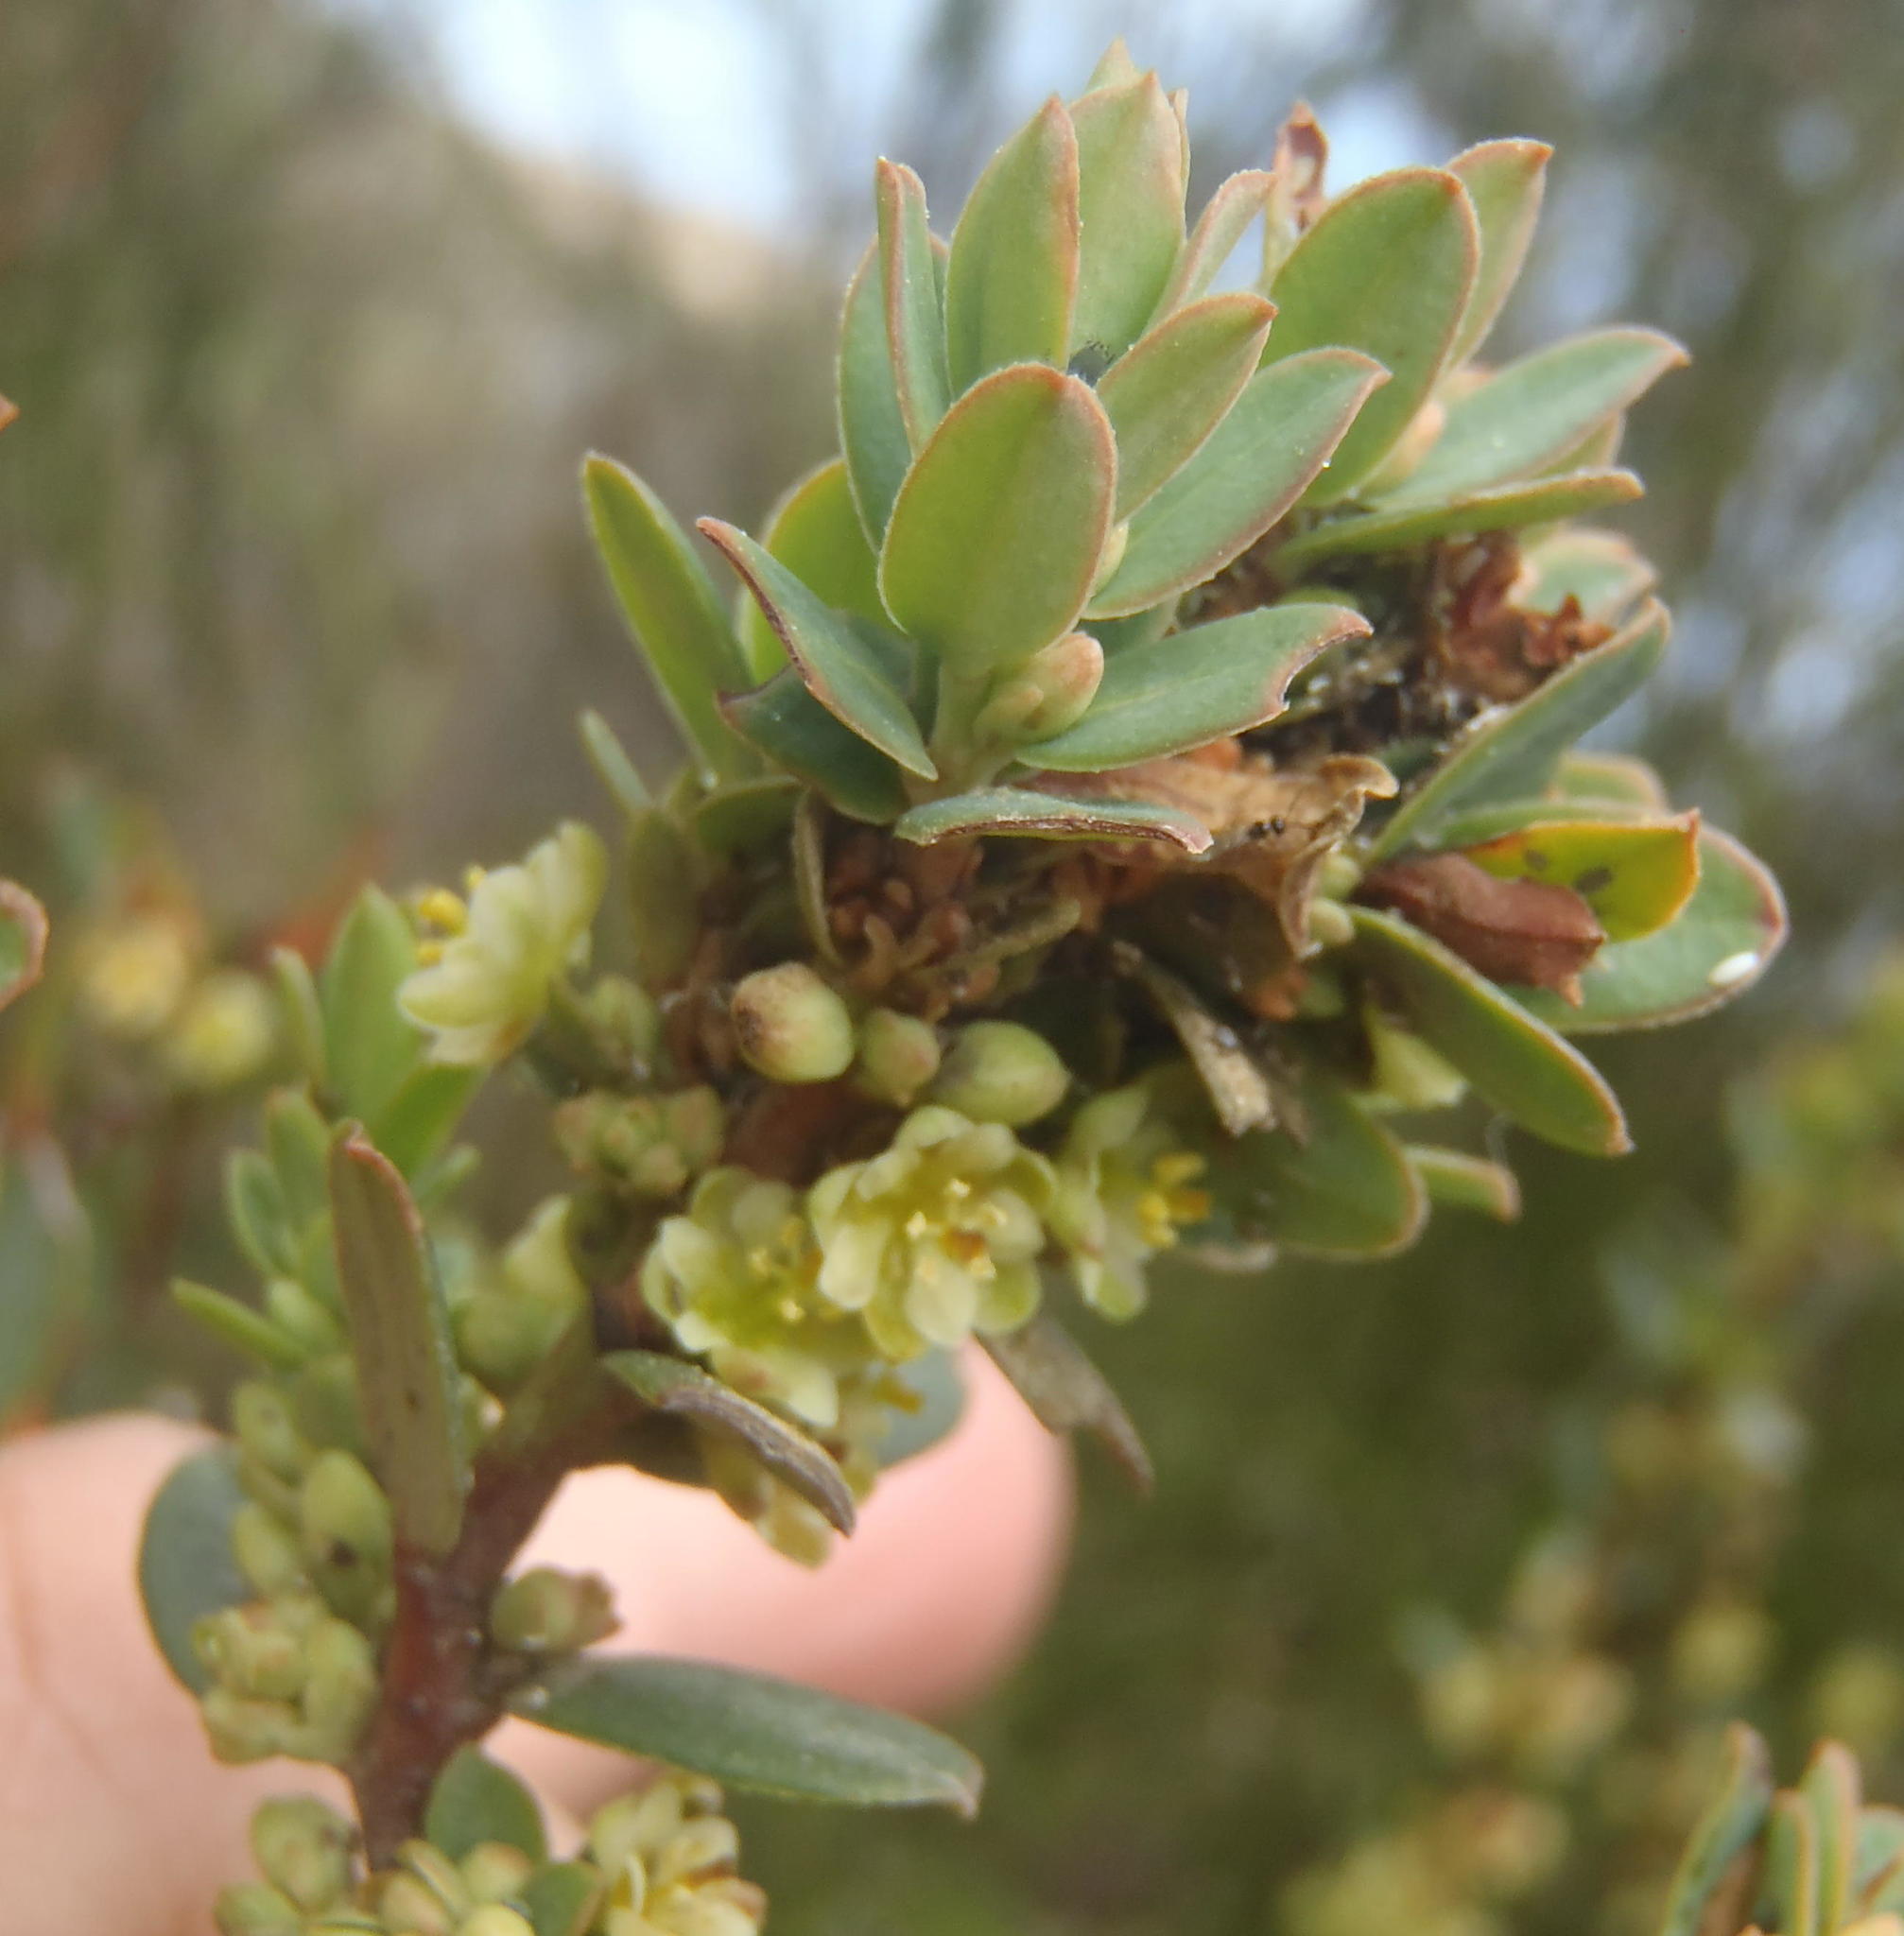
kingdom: Plantae
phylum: Tracheophyta
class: Magnoliopsida
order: Malpighiales
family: Peraceae
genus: Clutia
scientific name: Clutia laxa
